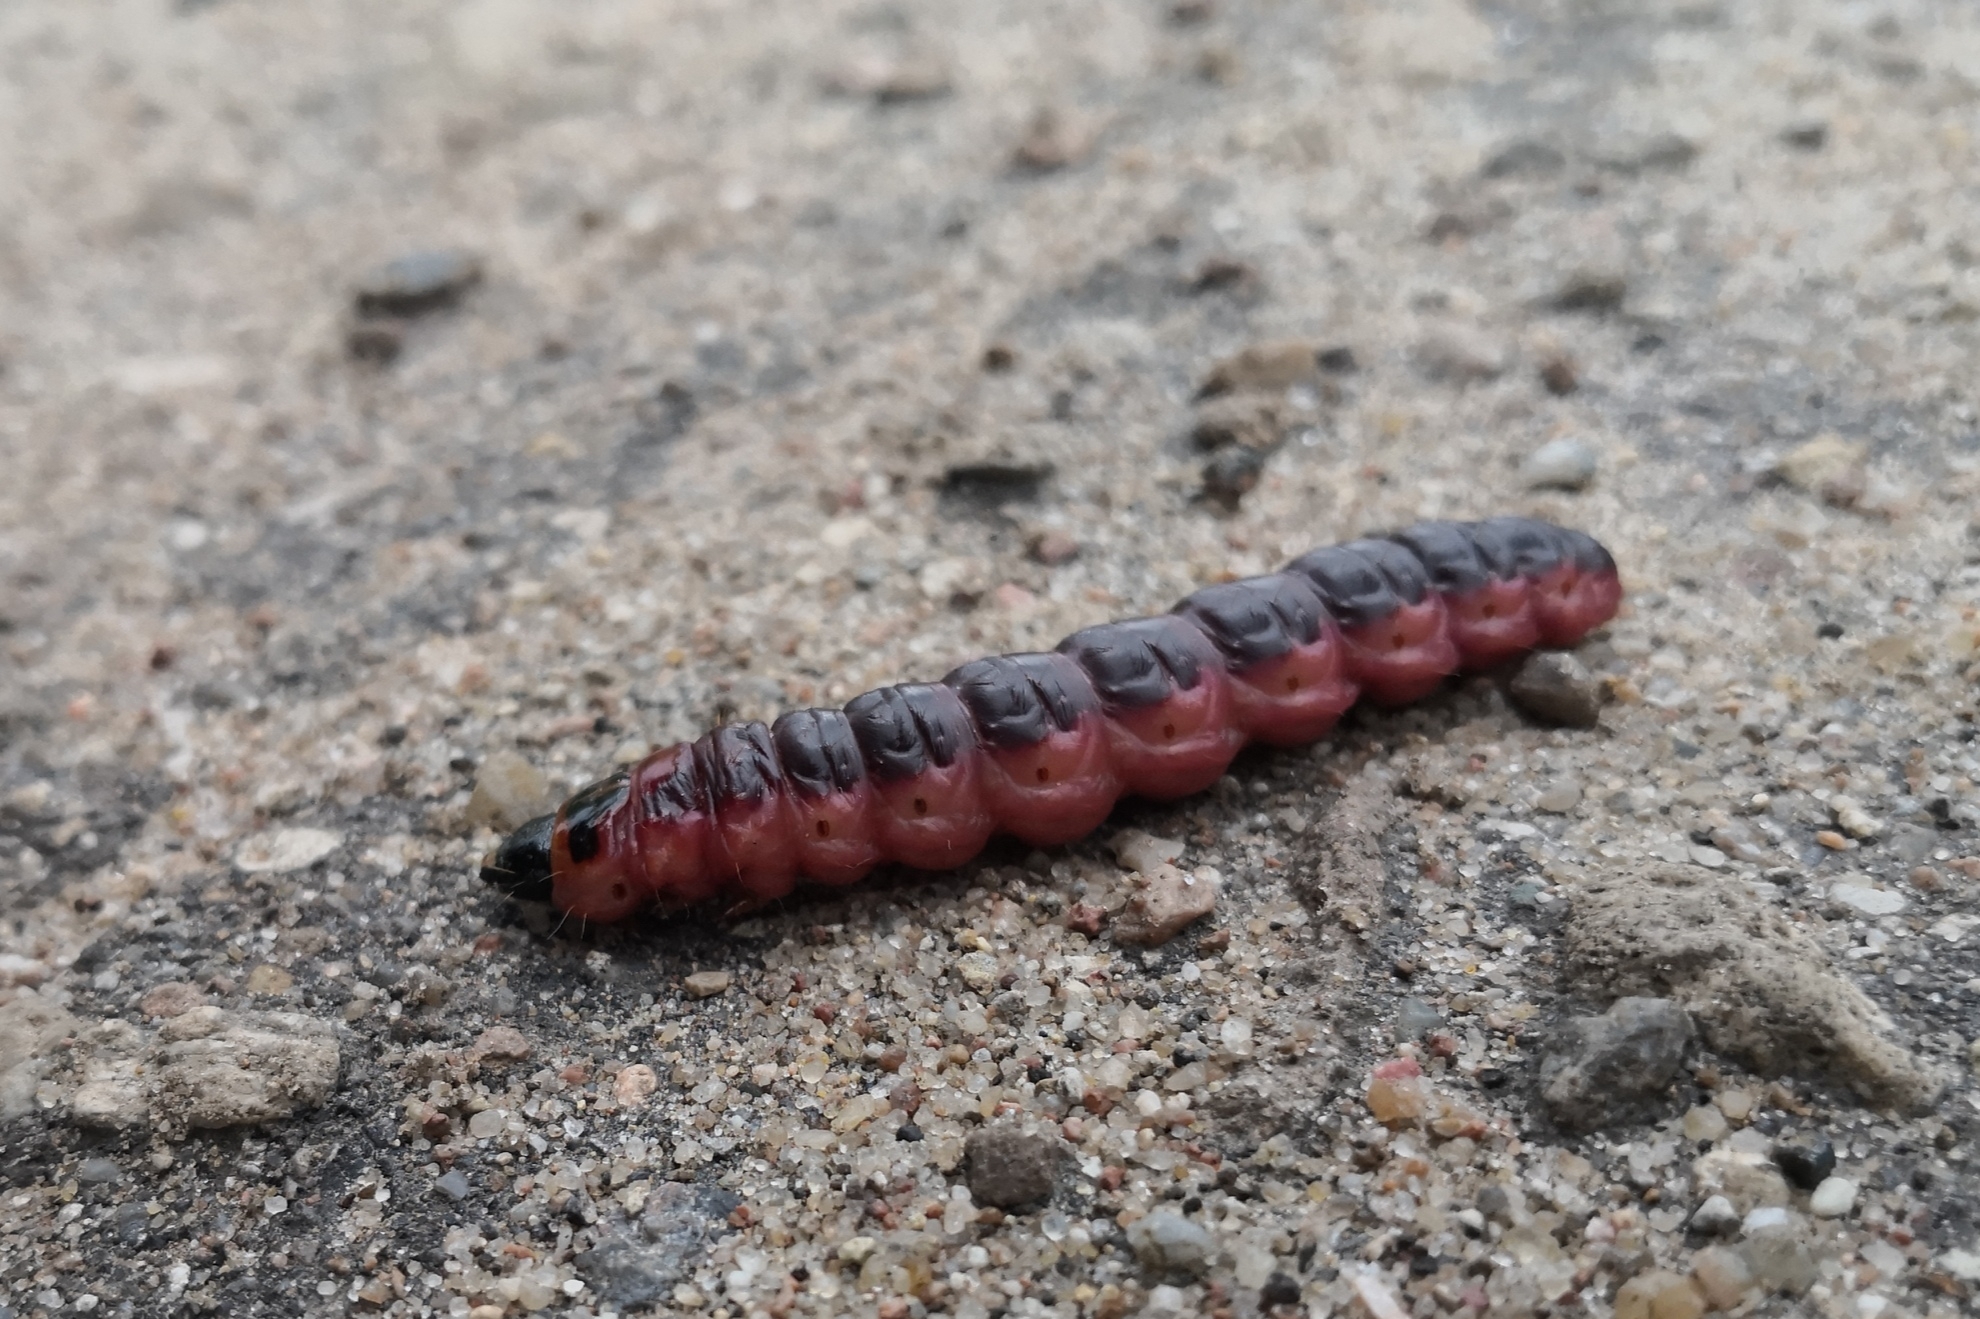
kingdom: Animalia
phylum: Arthropoda
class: Insecta
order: Lepidoptera
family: Cossidae
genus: Cossus
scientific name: Cossus cossus
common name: Goat moth
